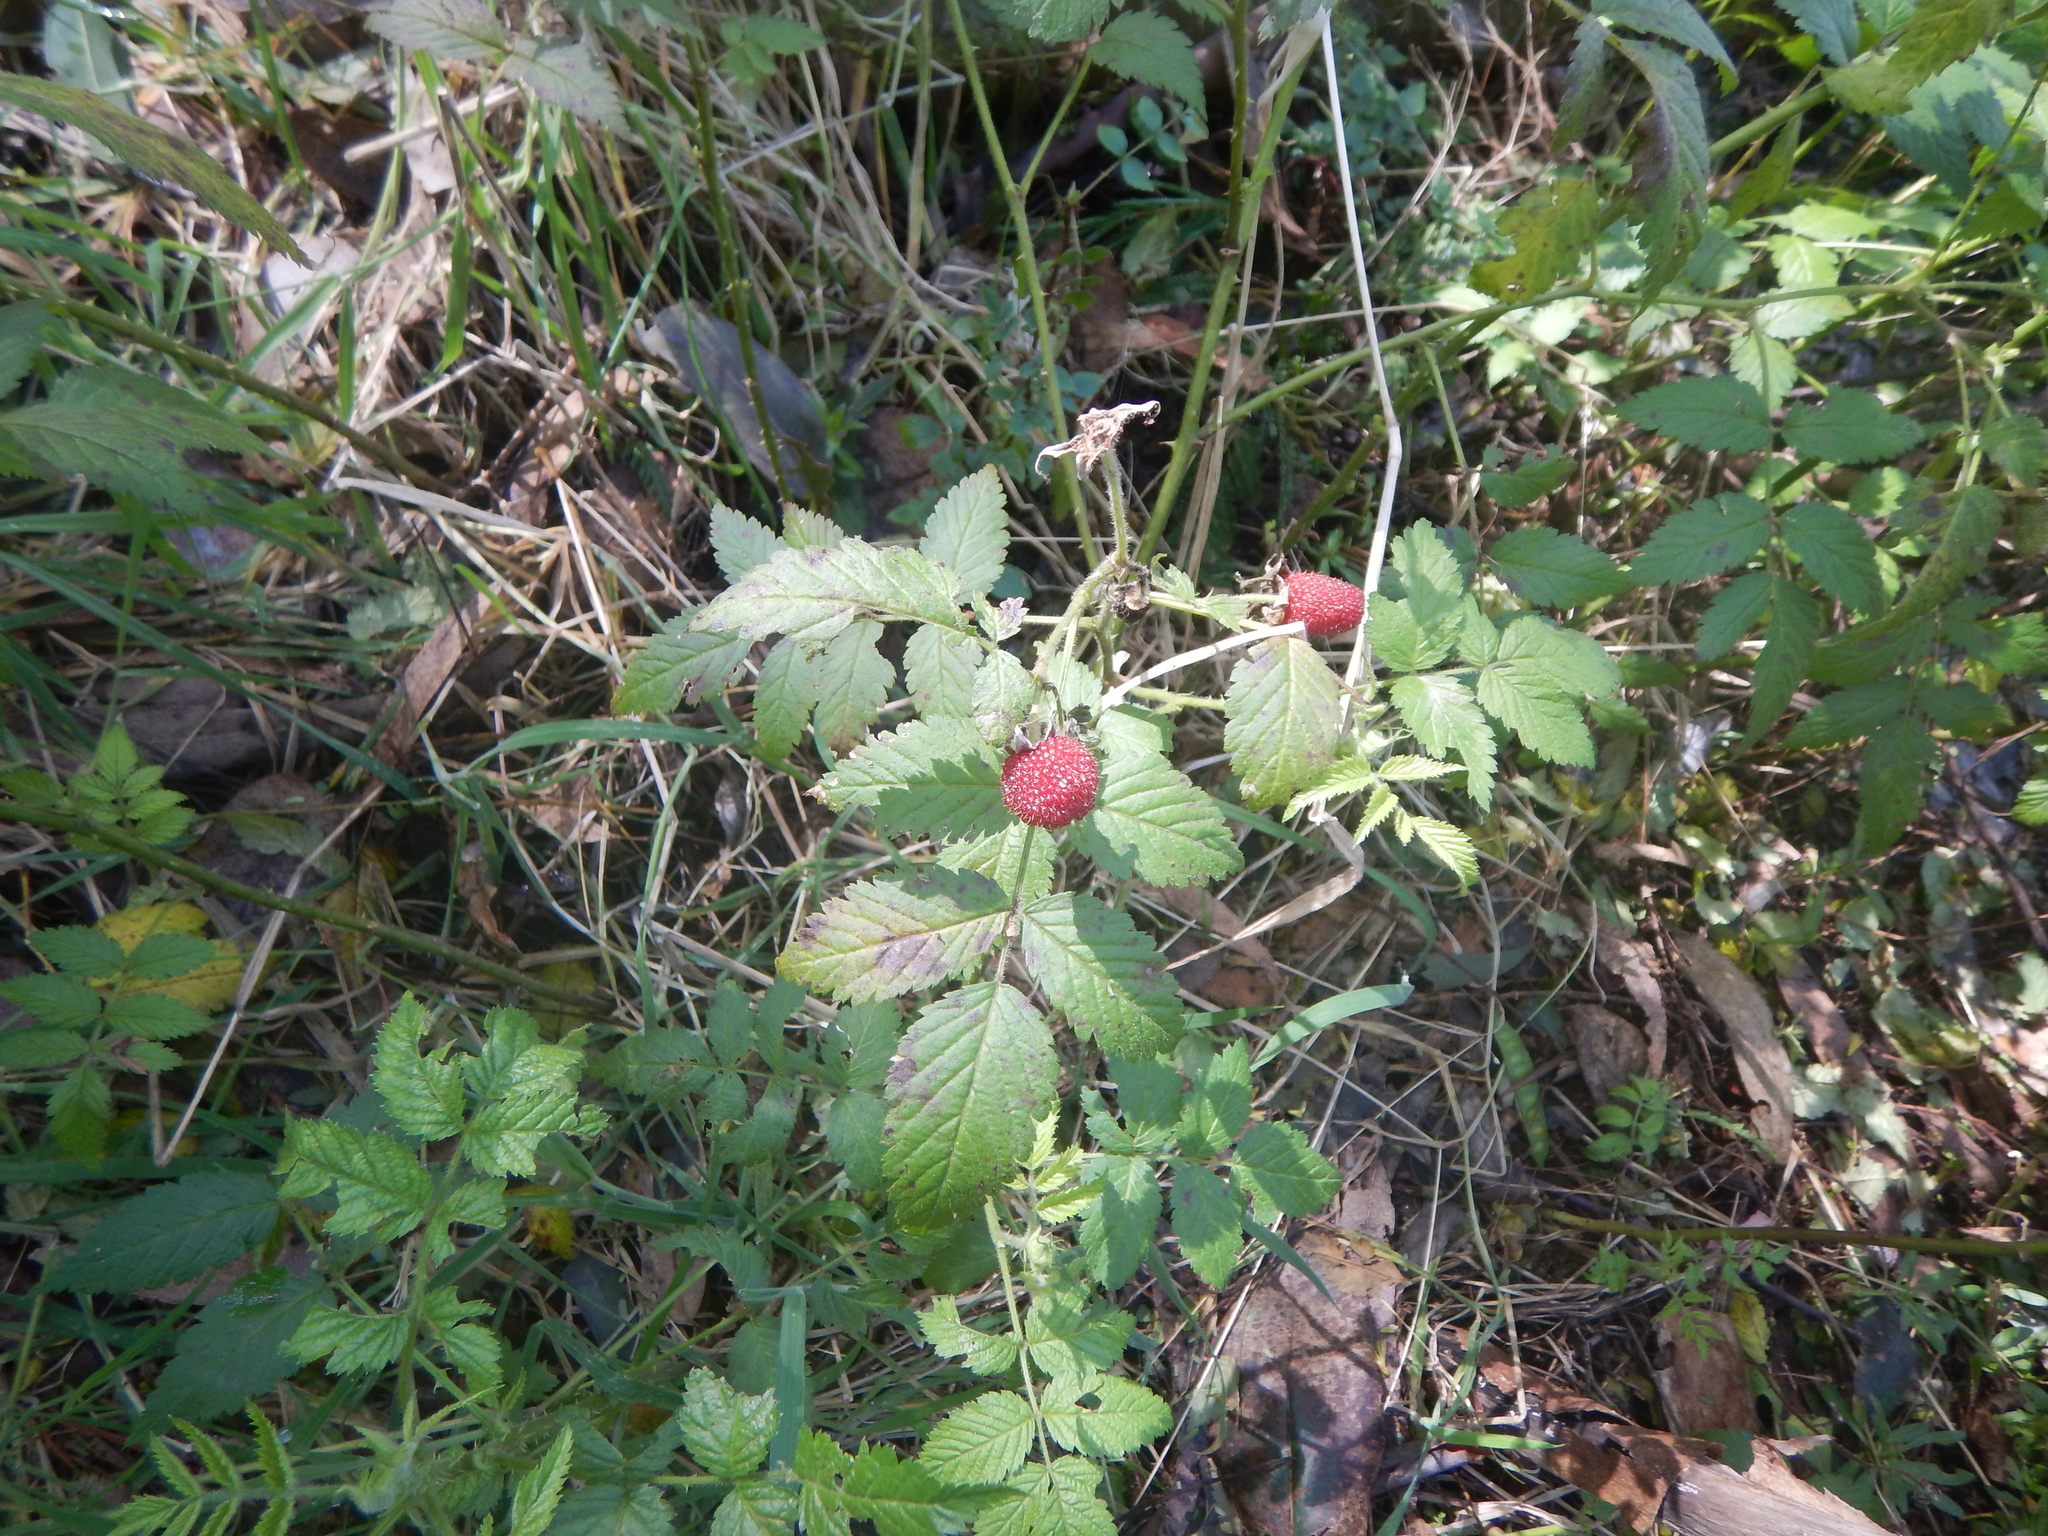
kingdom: Plantae
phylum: Tracheophyta
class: Magnoliopsida
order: Rosales
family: Rosaceae
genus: Rubus
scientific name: Rubus rosifolius
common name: Roseleaf raspberry
